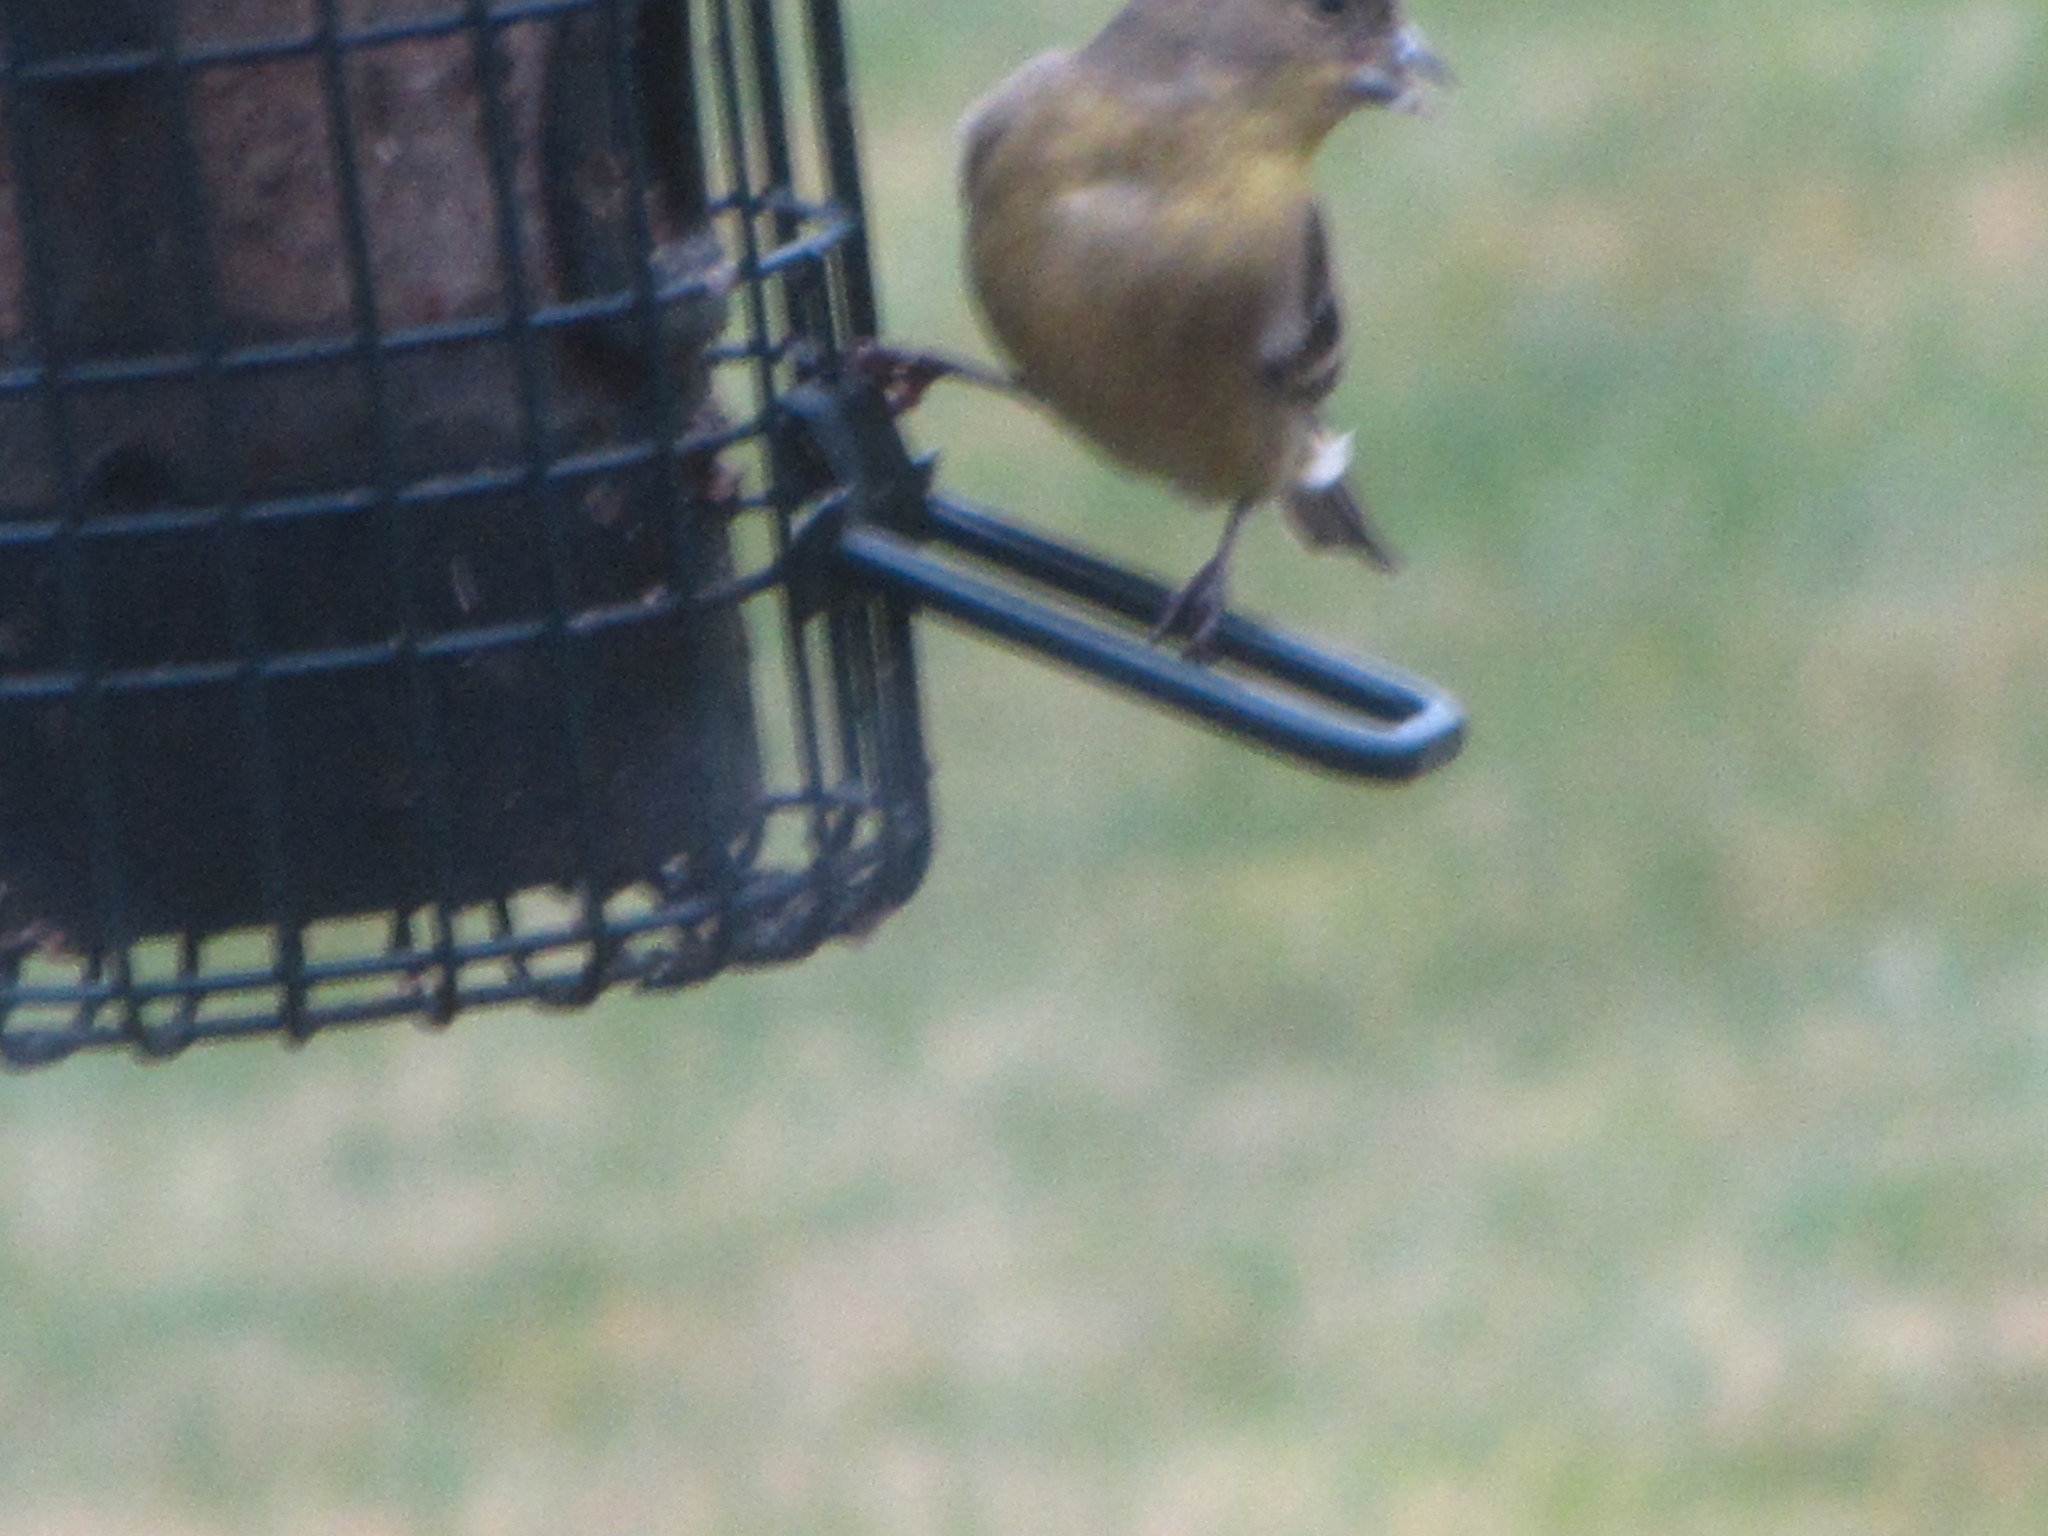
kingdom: Animalia
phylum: Chordata
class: Aves
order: Passeriformes
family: Fringillidae
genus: Spinus
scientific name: Spinus psaltria
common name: Lesser goldfinch
